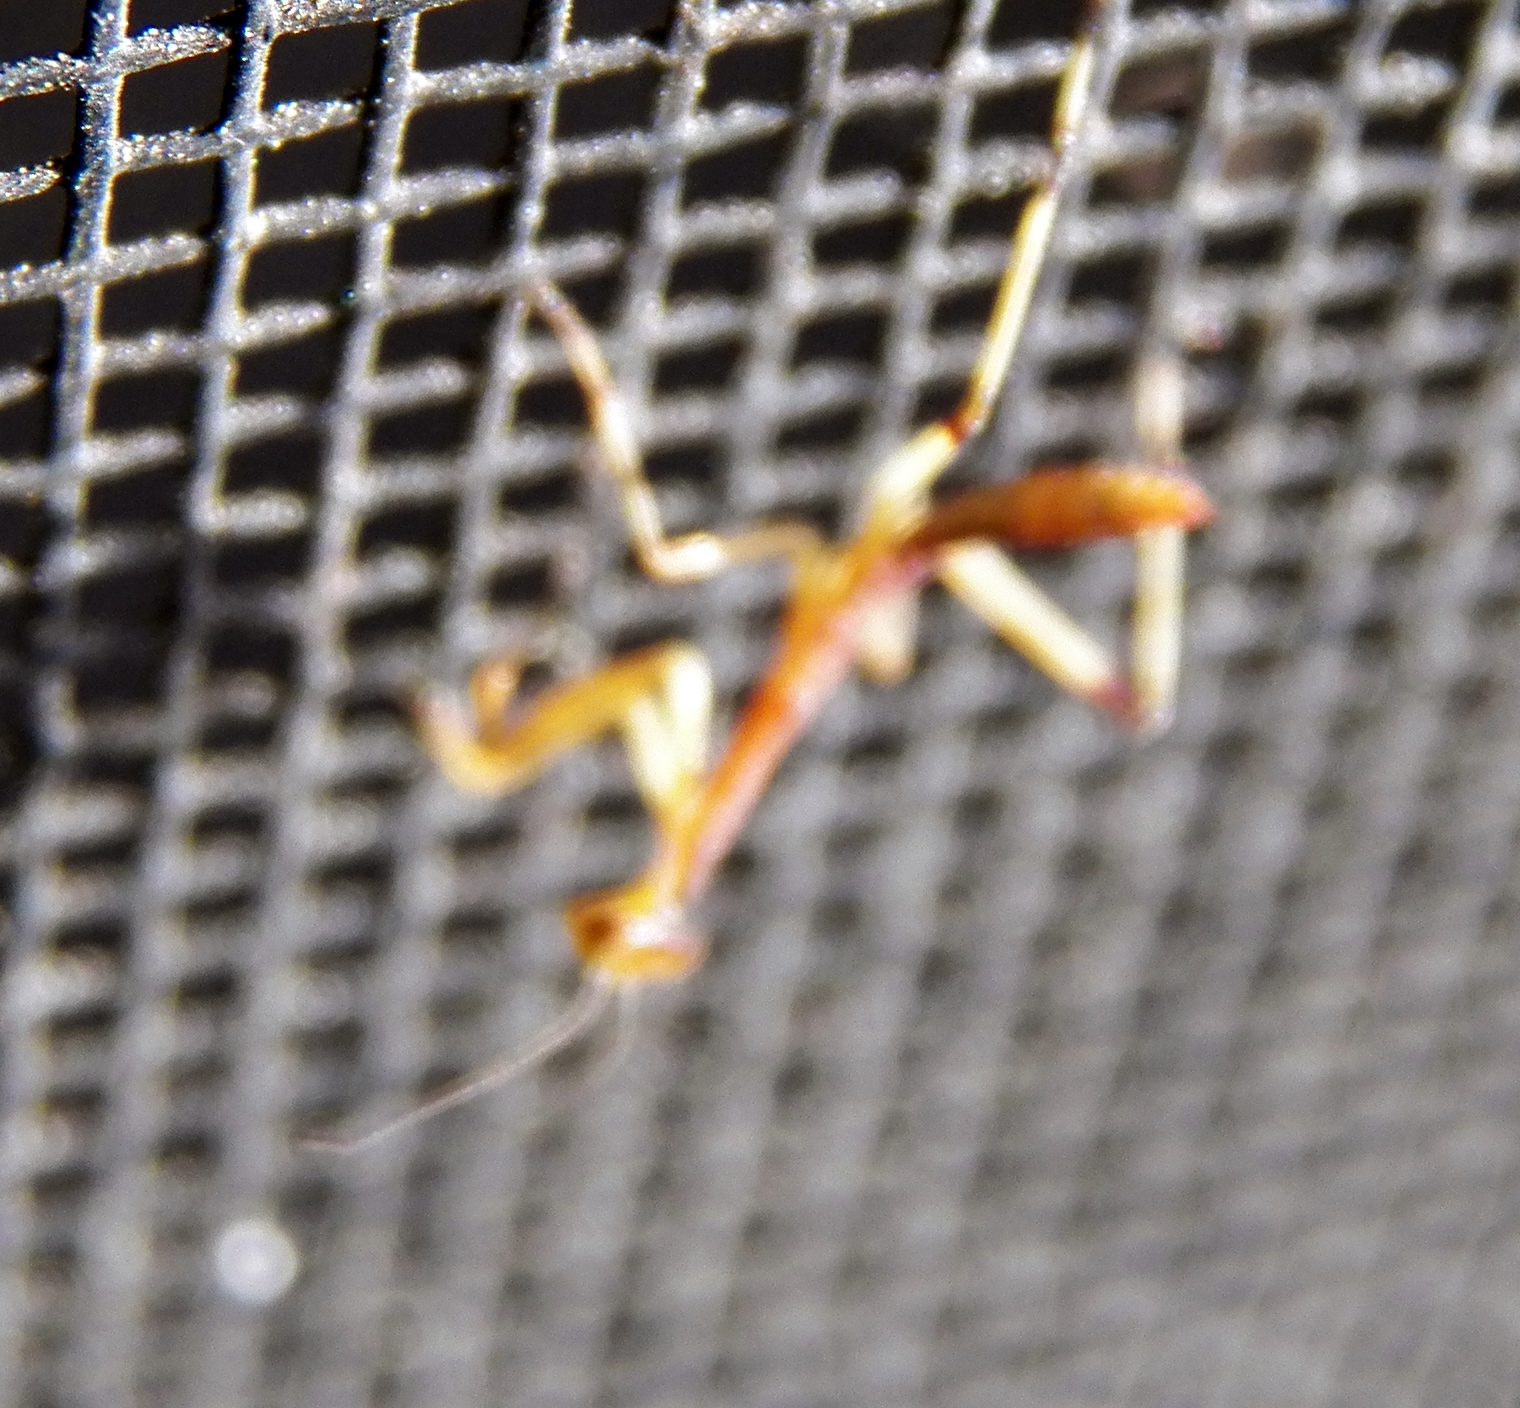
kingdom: Animalia
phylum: Arthropoda
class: Insecta
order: Mantodea
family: Mantidae
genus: Stagmomantis
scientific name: Stagmomantis carolina
